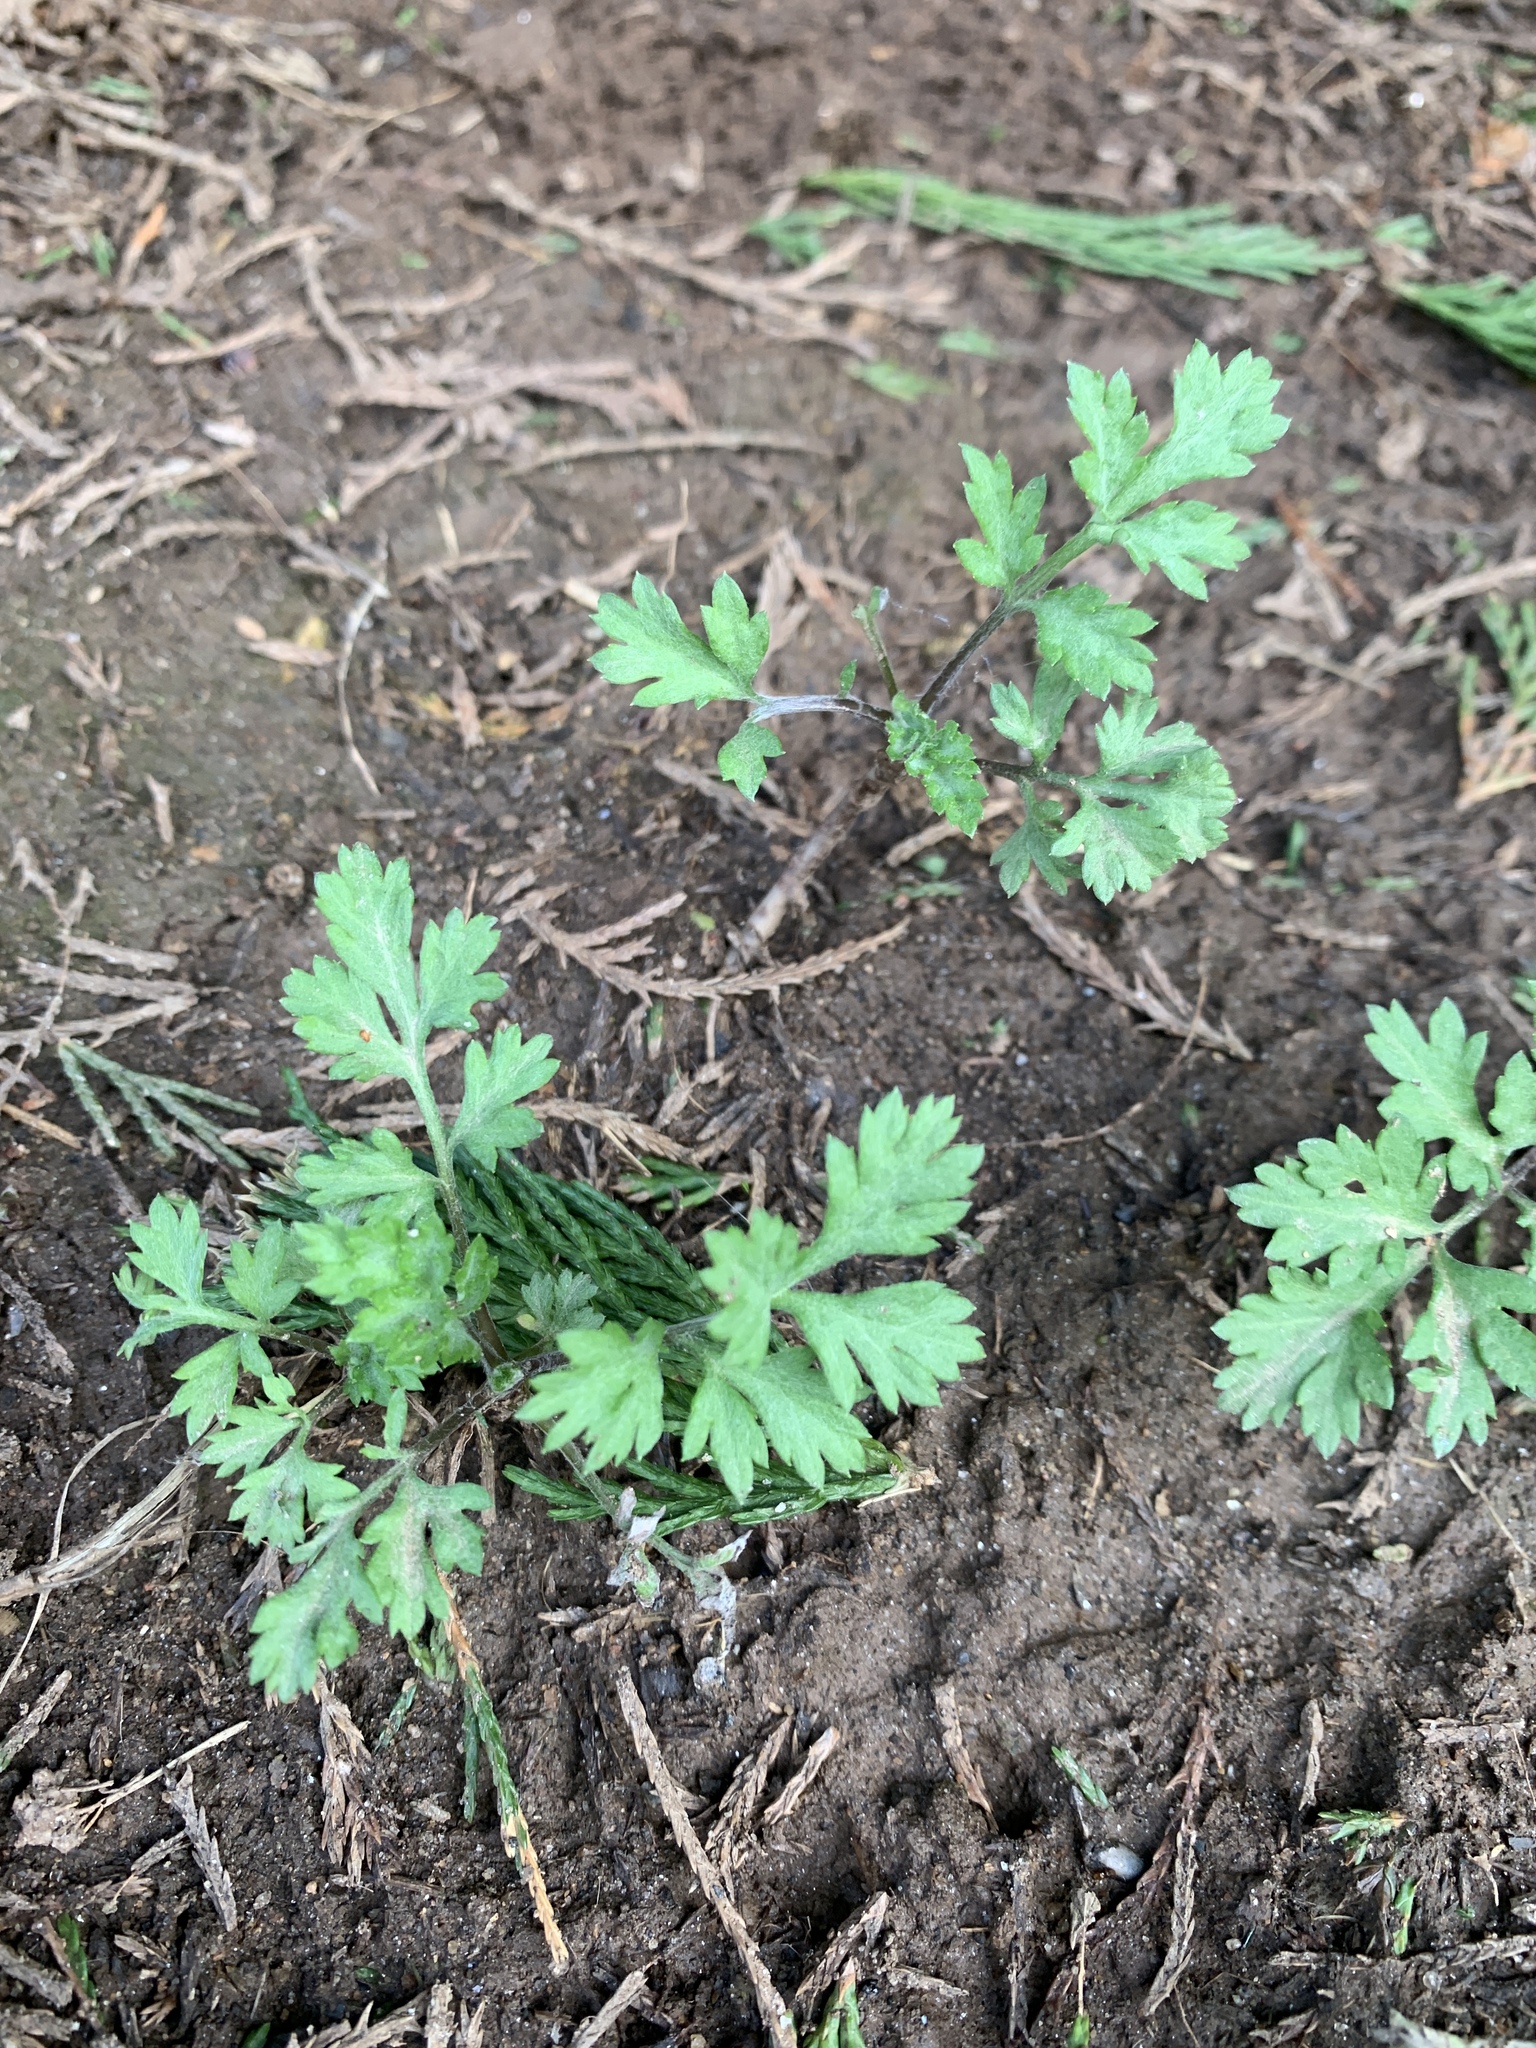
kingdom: Plantae
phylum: Tracheophyta
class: Magnoliopsida
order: Asterales
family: Asteraceae
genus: Artemisia
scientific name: Artemisia vulgaris
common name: Mugwort
